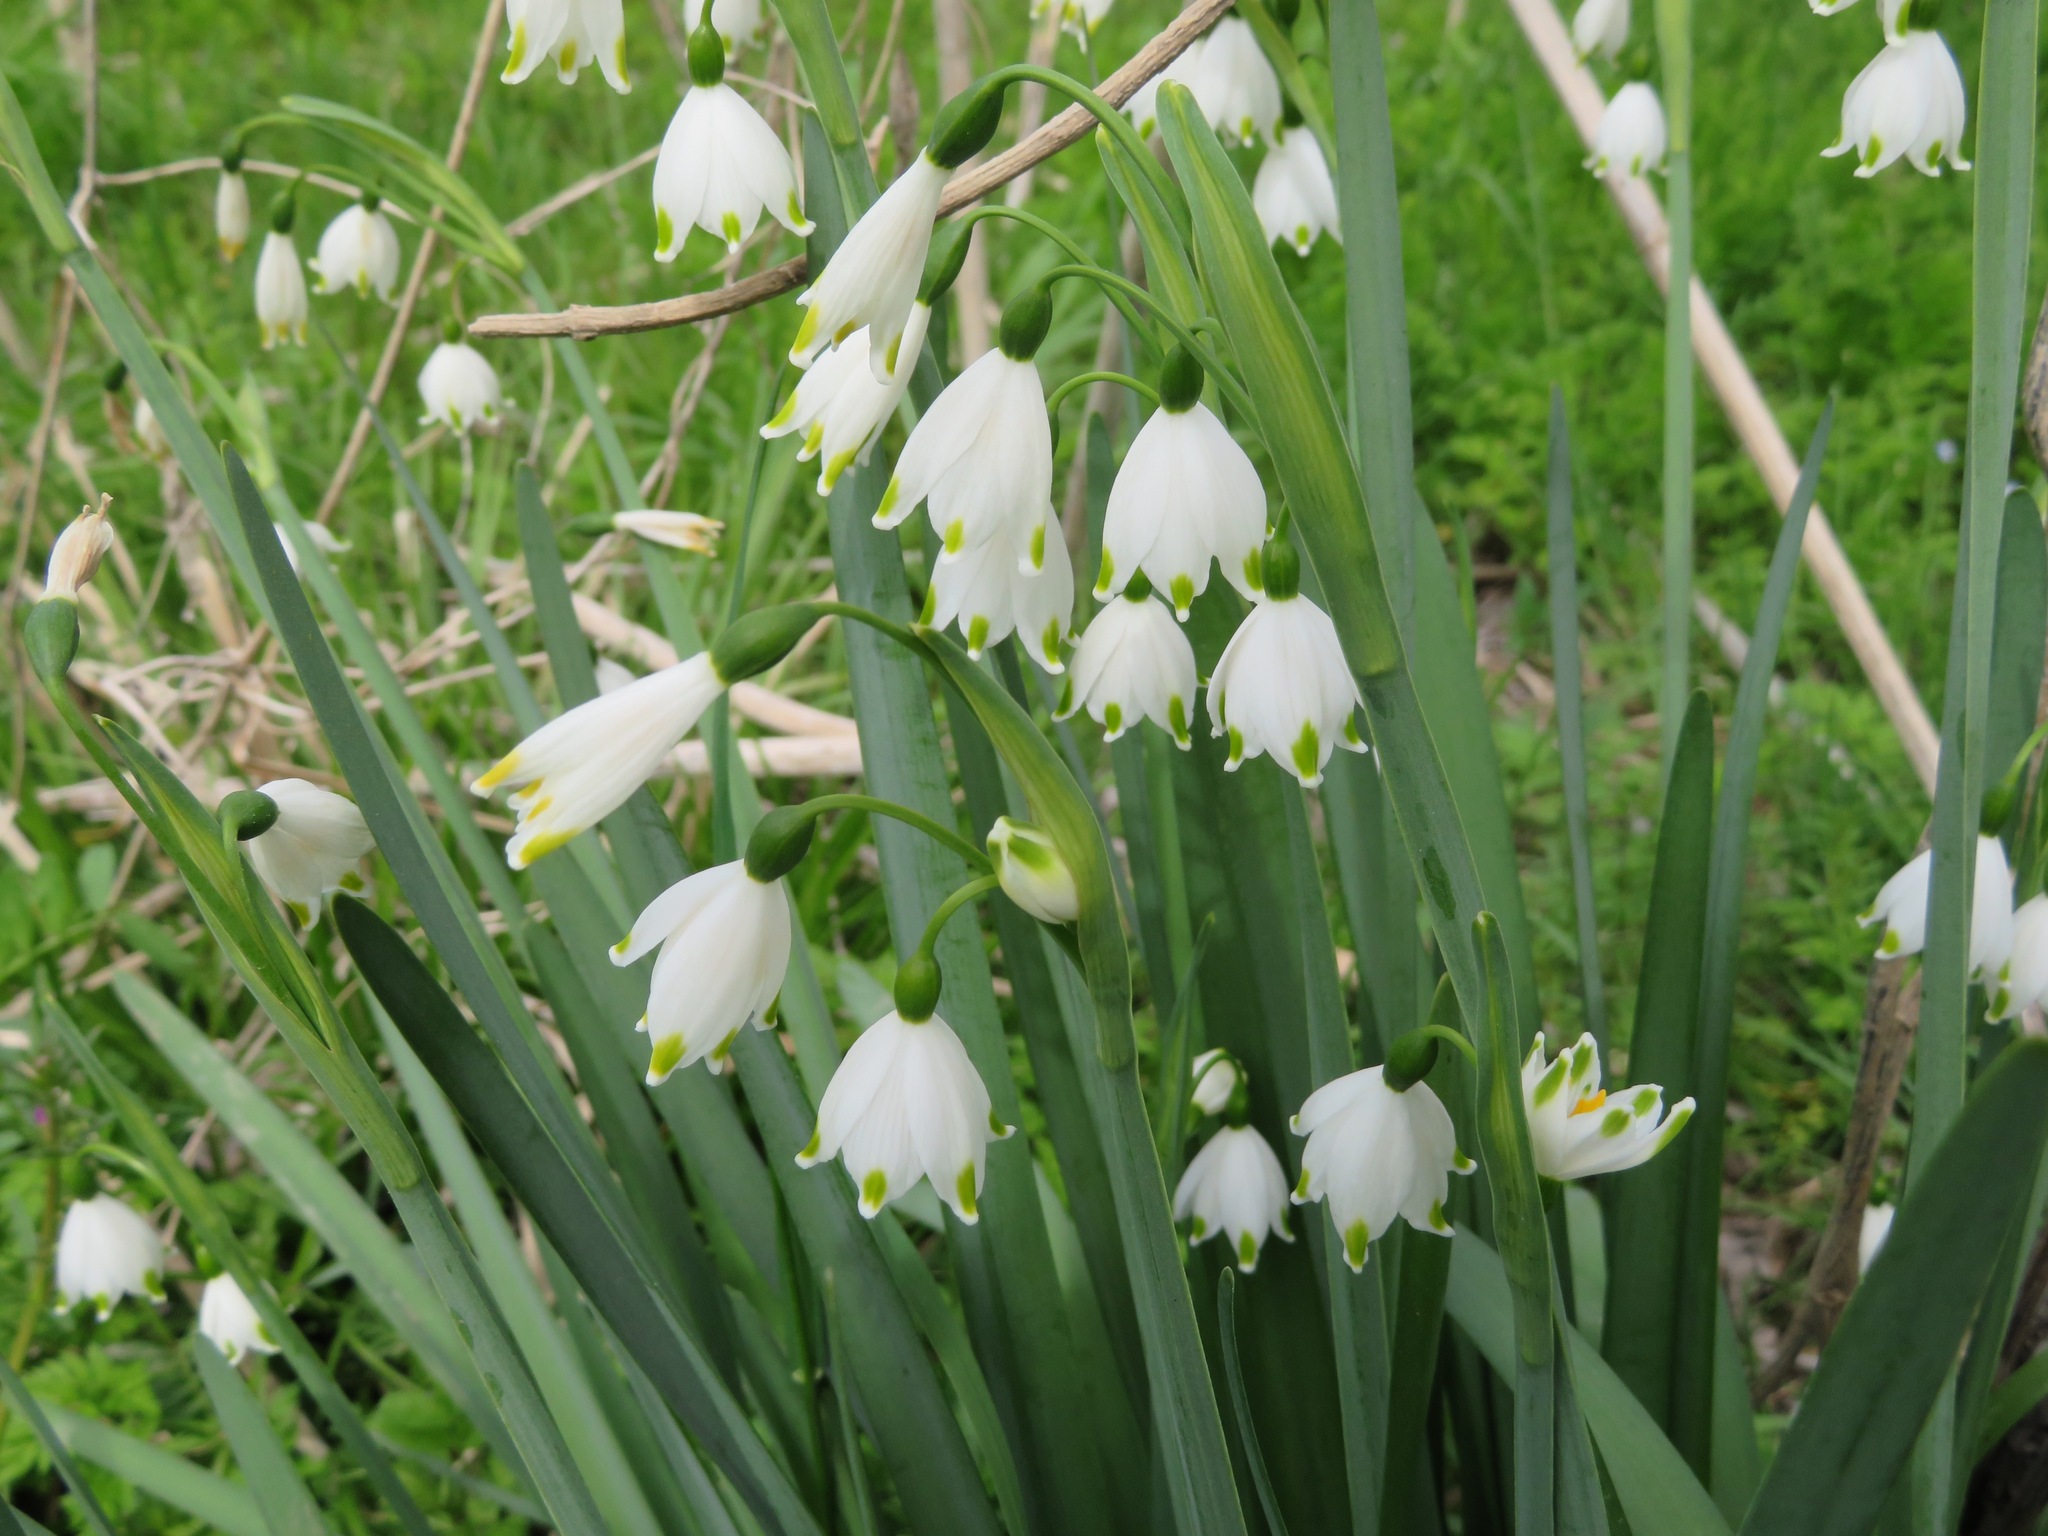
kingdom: Plantae
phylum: Tracheophyta
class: Liliopsida
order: Asparagales
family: Amaryllidaceae
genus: Leucojum
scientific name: Leucojum aestivum
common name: Summer snowflake
